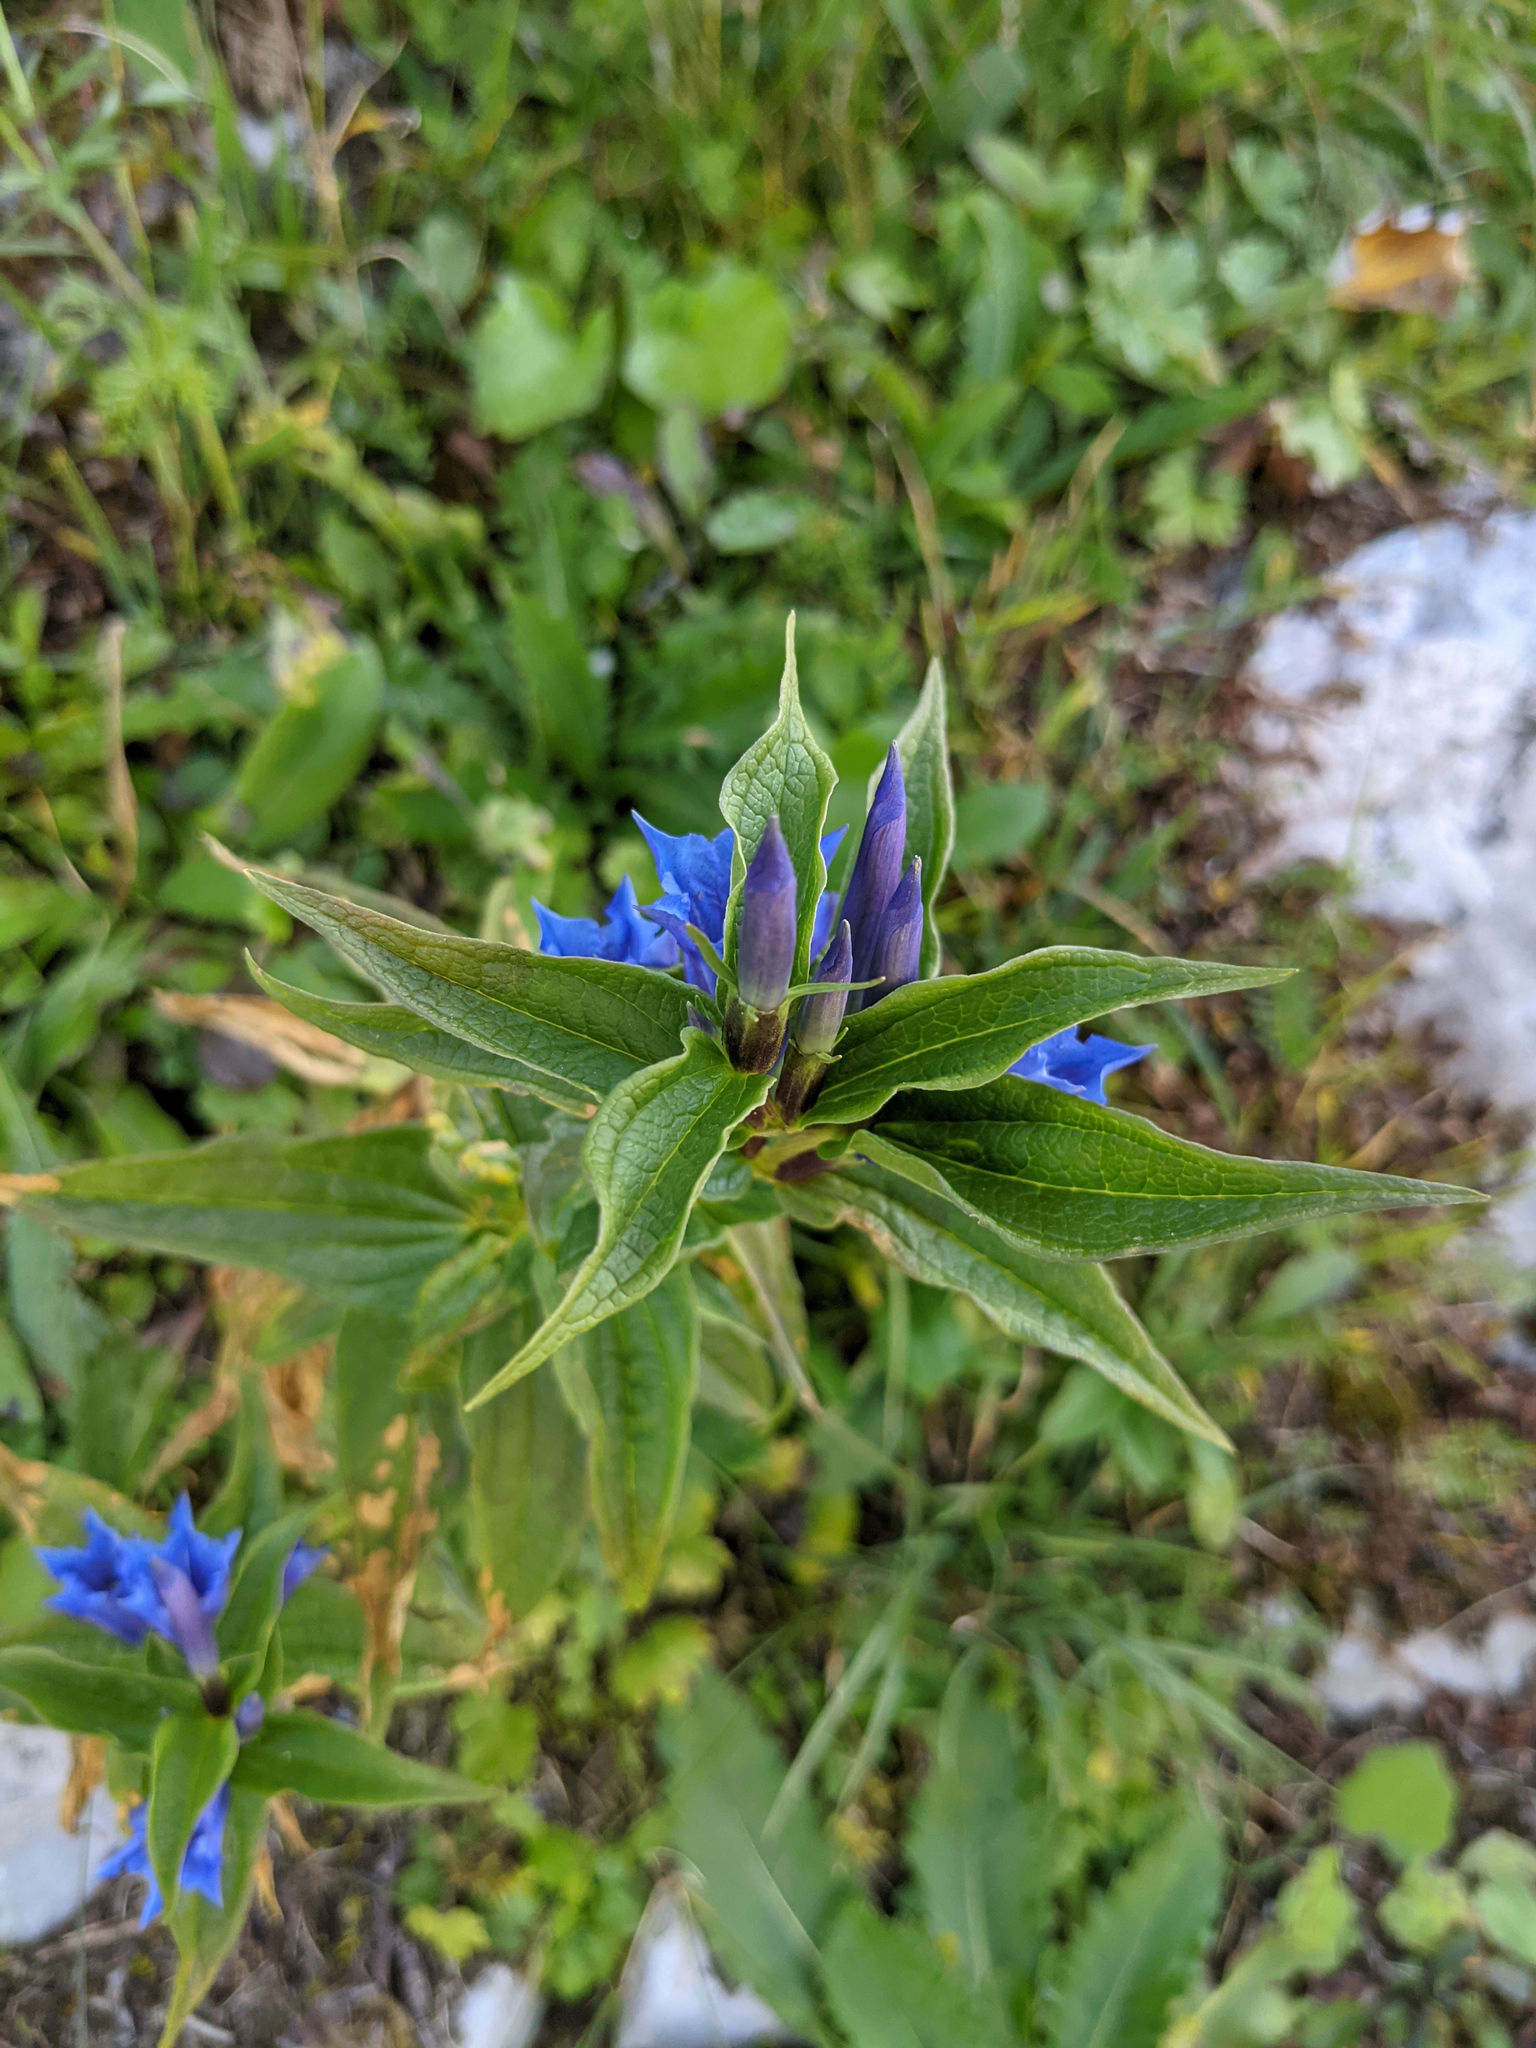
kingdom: Plantae
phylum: Tracheophyta
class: Magnoliopsida
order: Gentianales
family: Gentianaceae
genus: Gentiana
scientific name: Gentiana asclepiadea
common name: Willow gentian
